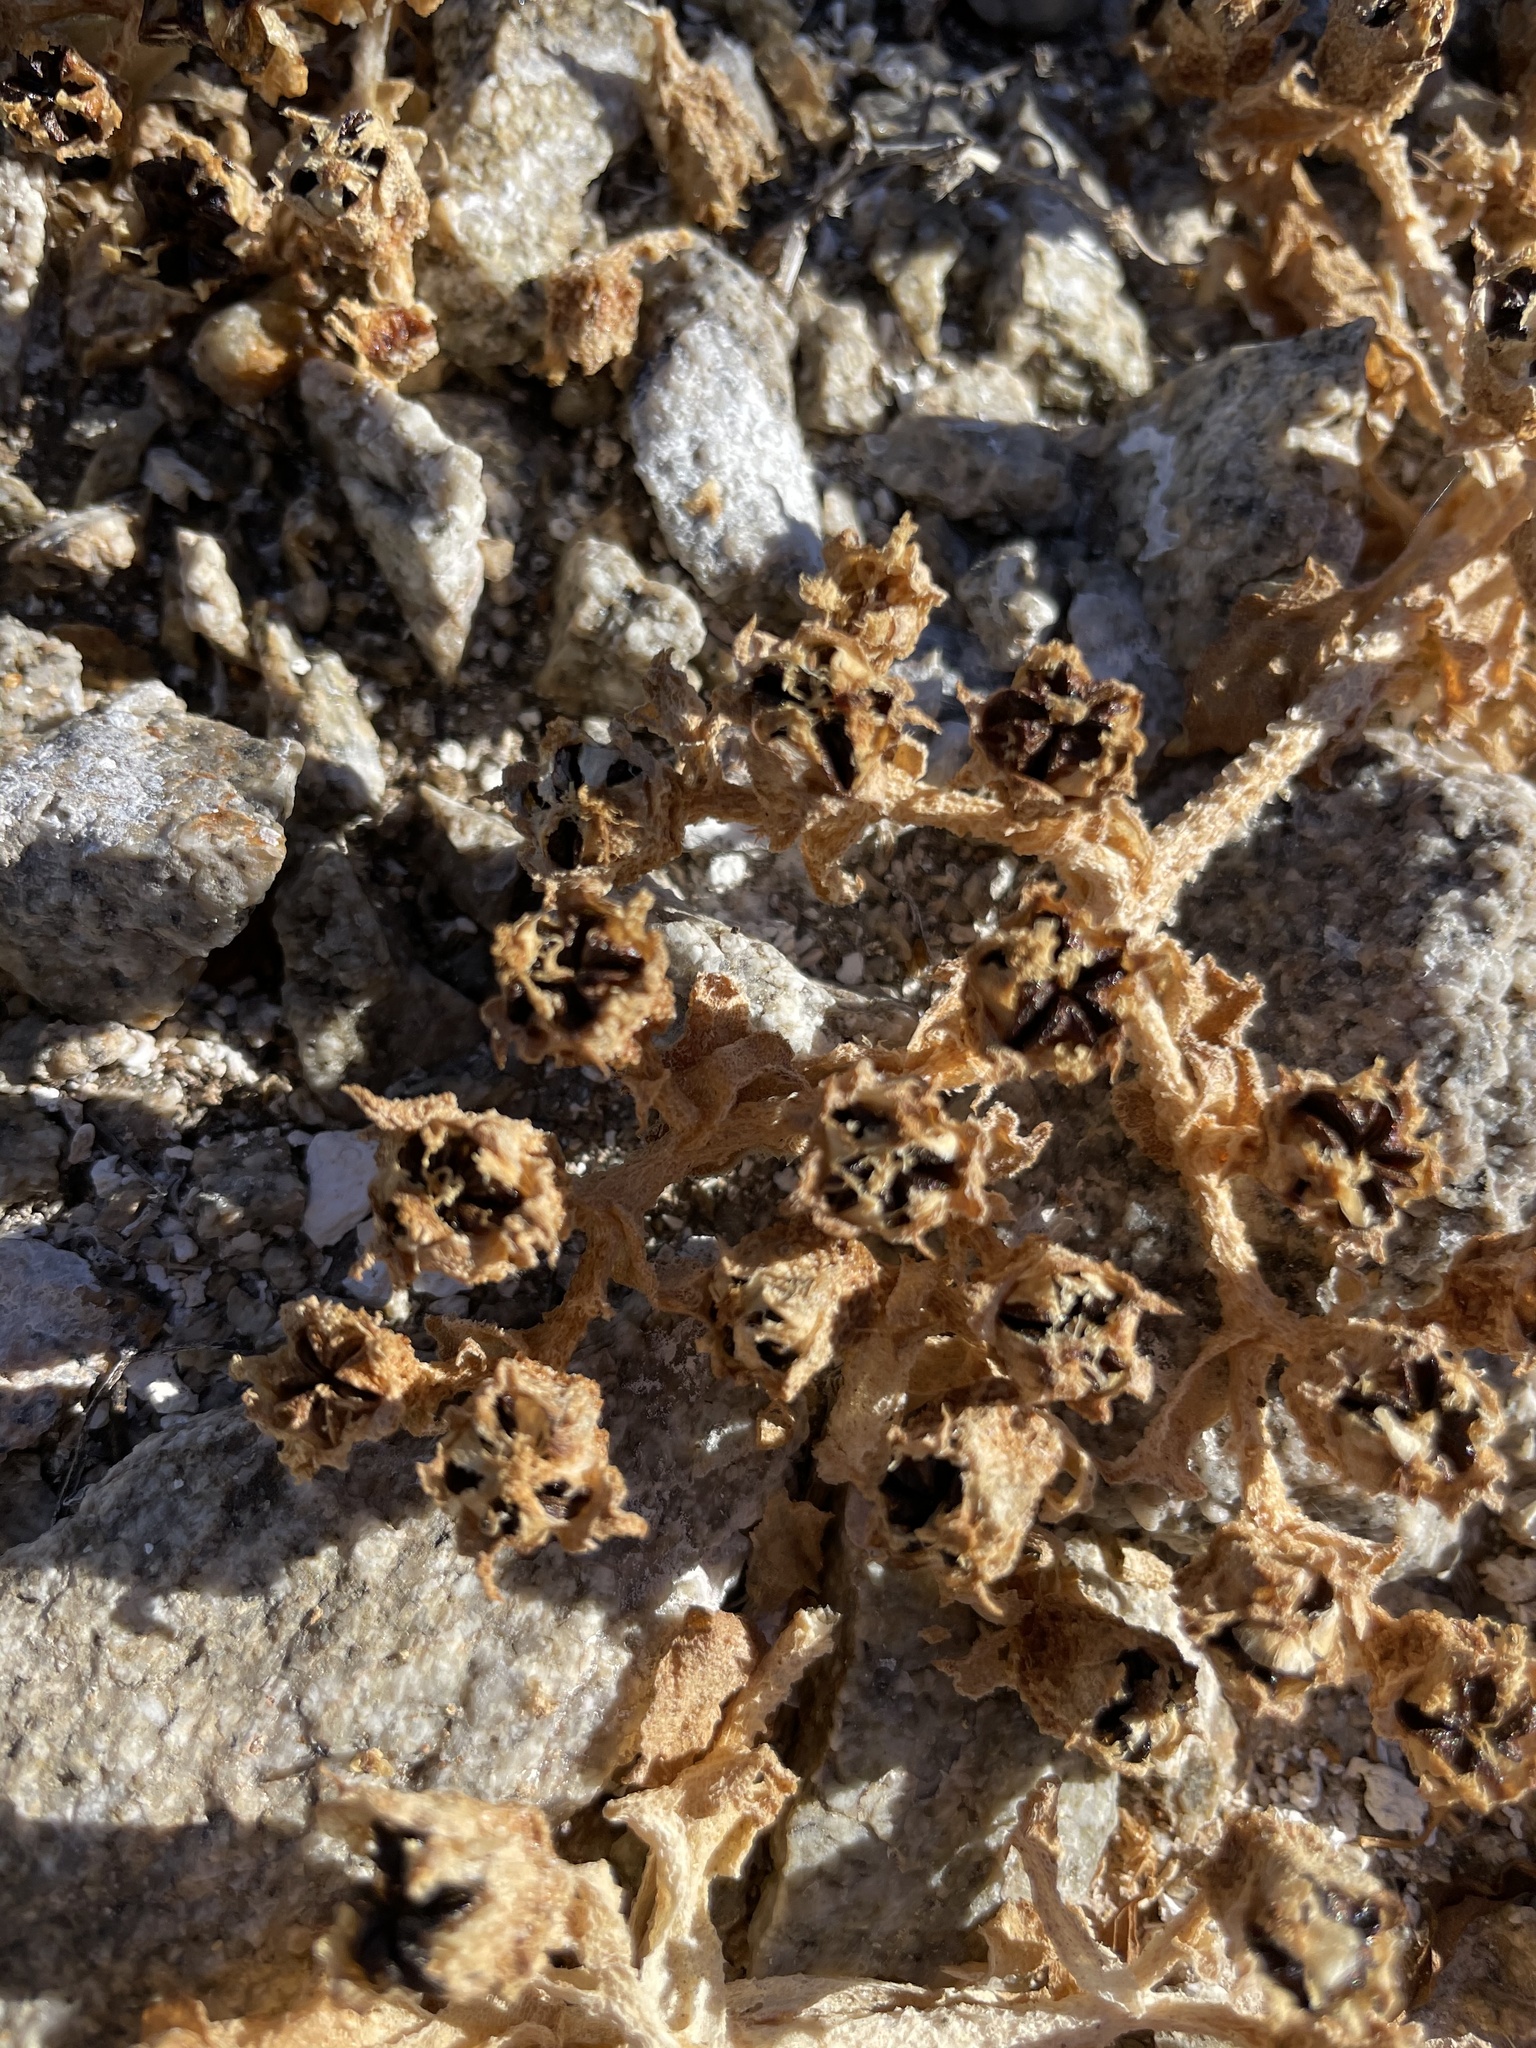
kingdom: Plantae
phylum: Tracheophyta
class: Magnoliopsida
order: Caryophyllales
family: Aizoaceae
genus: Mesembryanthemum
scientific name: Mesembryanthemum crystallinum
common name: Common iceplant
